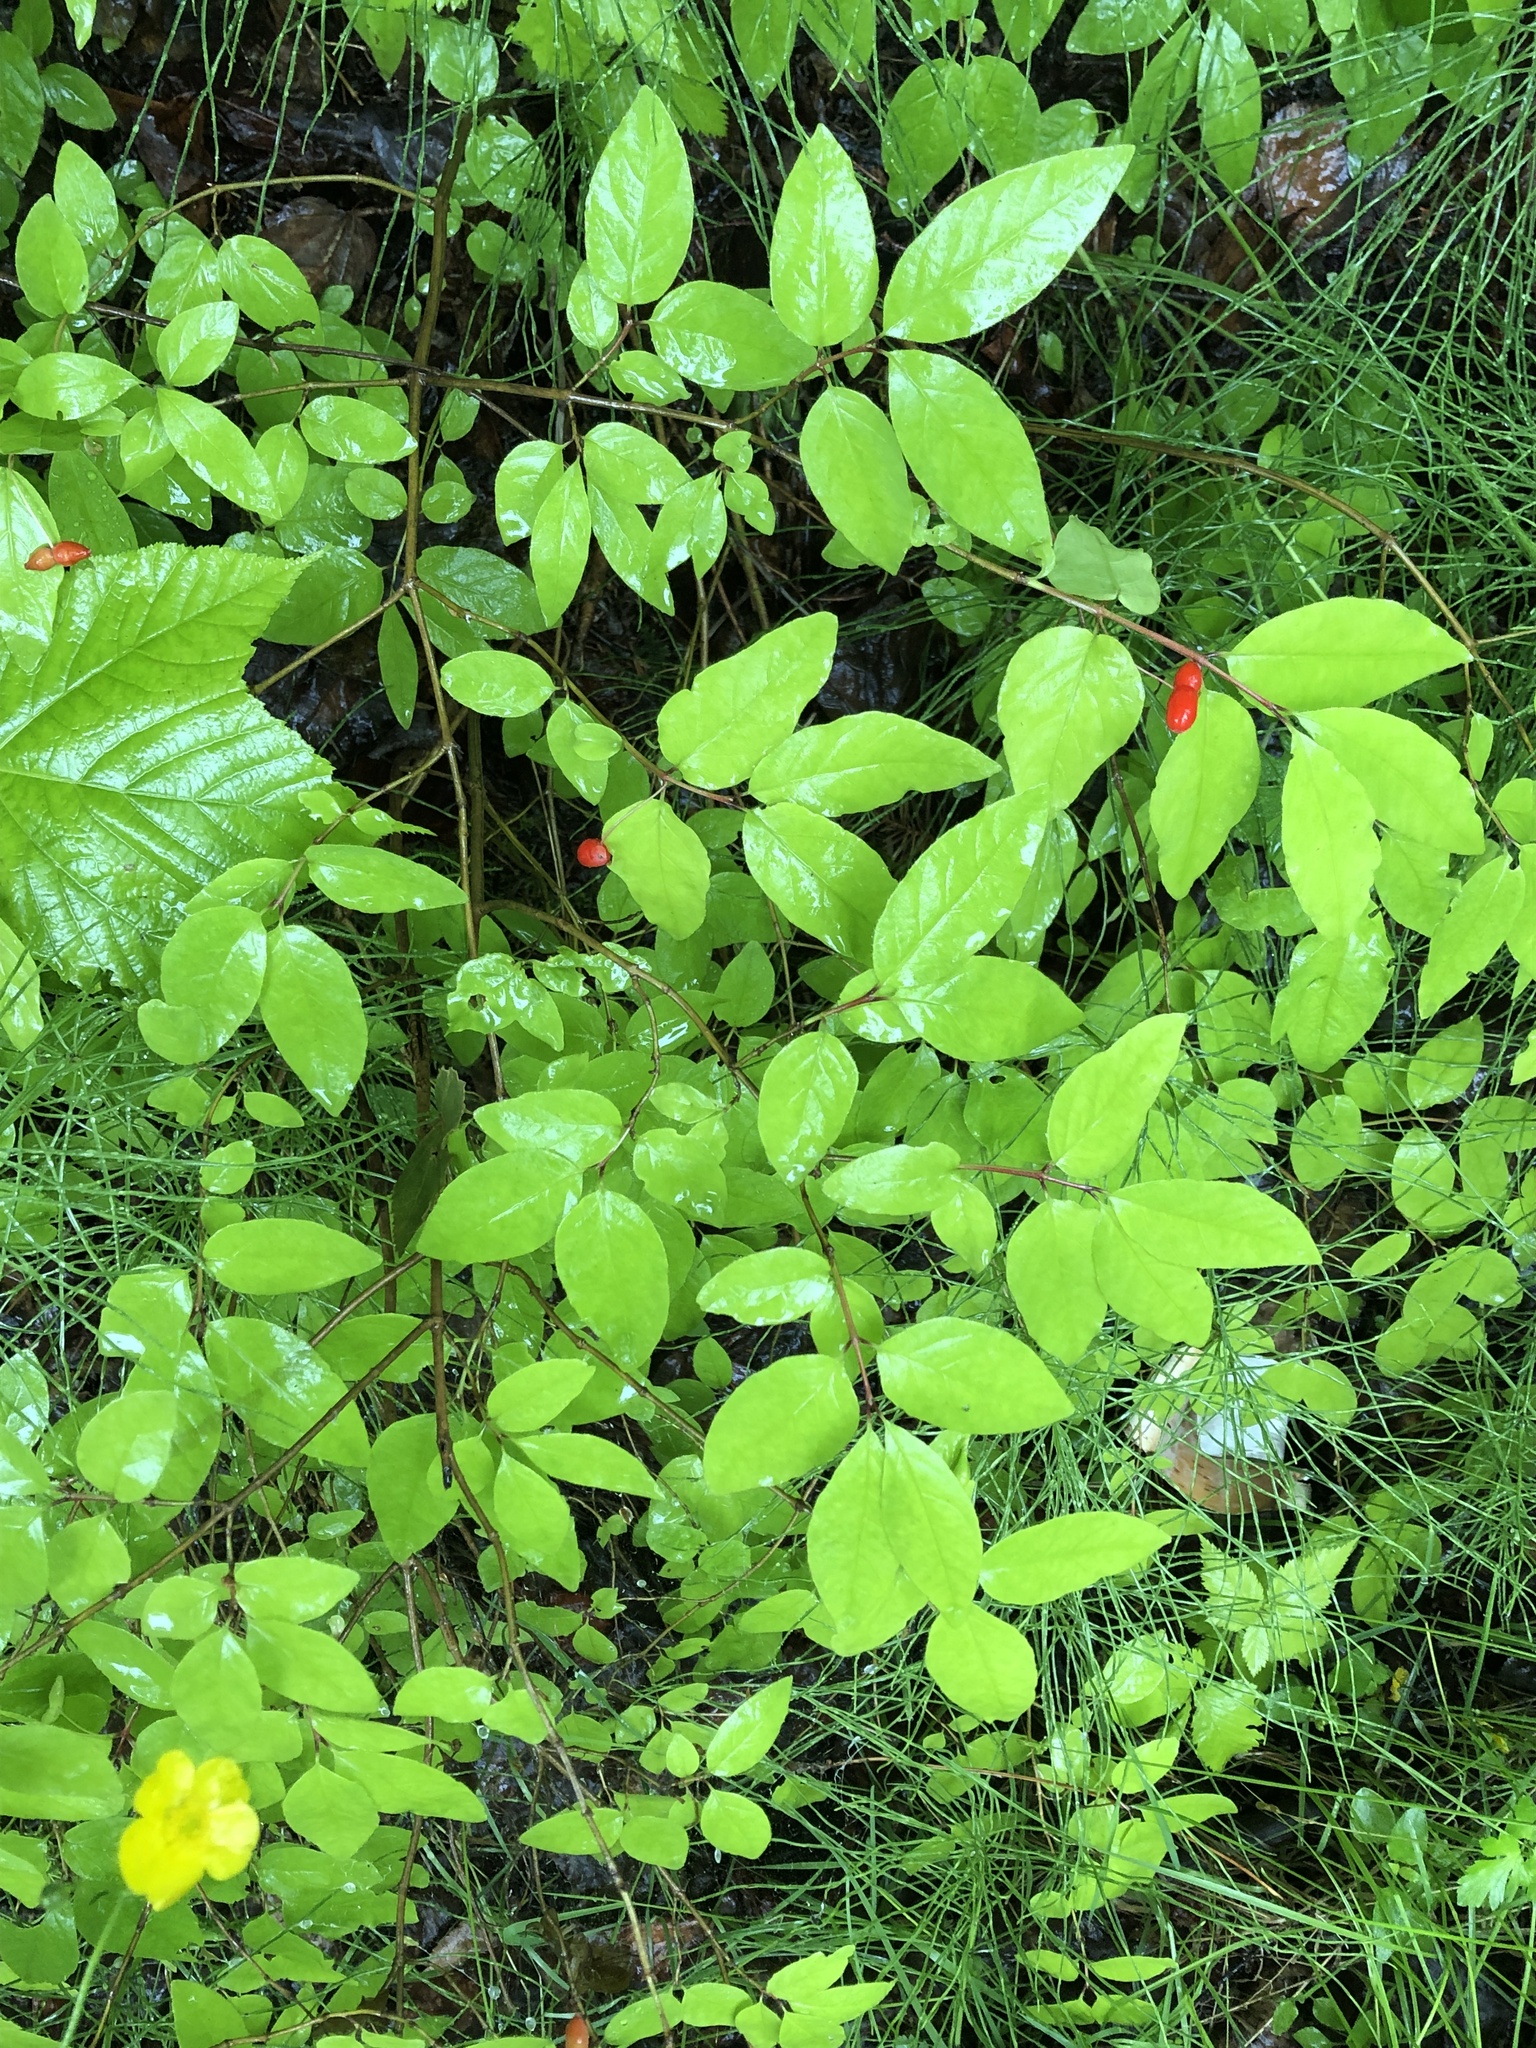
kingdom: Plantae
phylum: Tracheophyta
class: Magnoliopsida
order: Dipsacales
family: Caprifoliaceae
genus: Lonicera
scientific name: Lonicera canadensis
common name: American fly-honeysuckle
